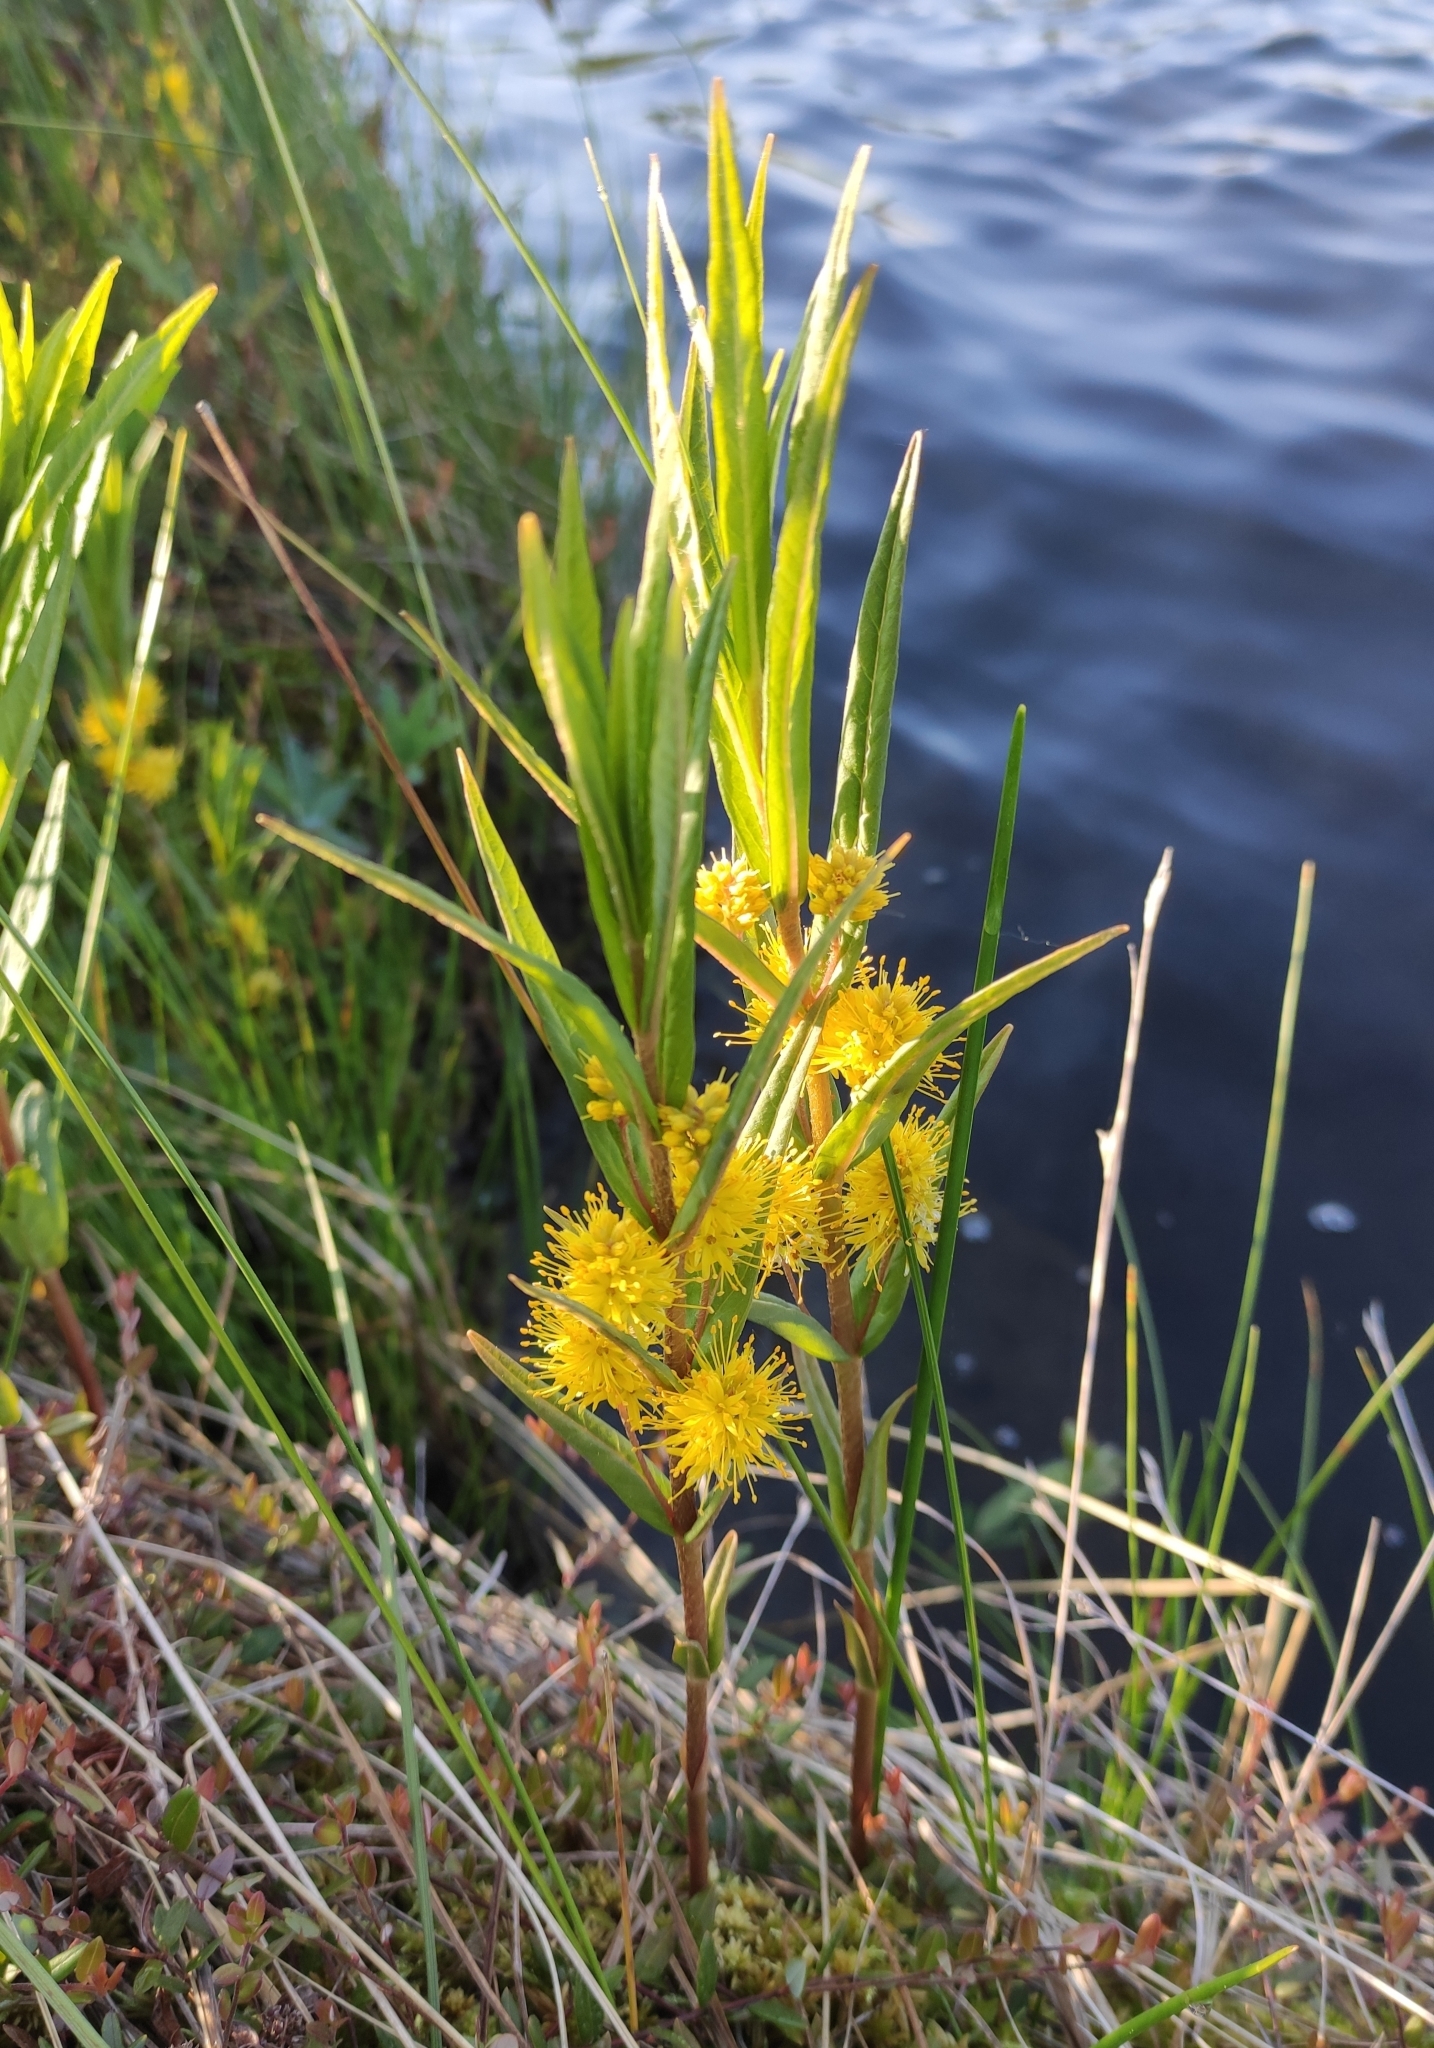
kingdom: Plantae
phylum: Tracheophyta
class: Magnoliopsida
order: Ericales
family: Primulaceae
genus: Lysimachia
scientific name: Lysimachia thyrsiflora
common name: Tufted loosestrife
